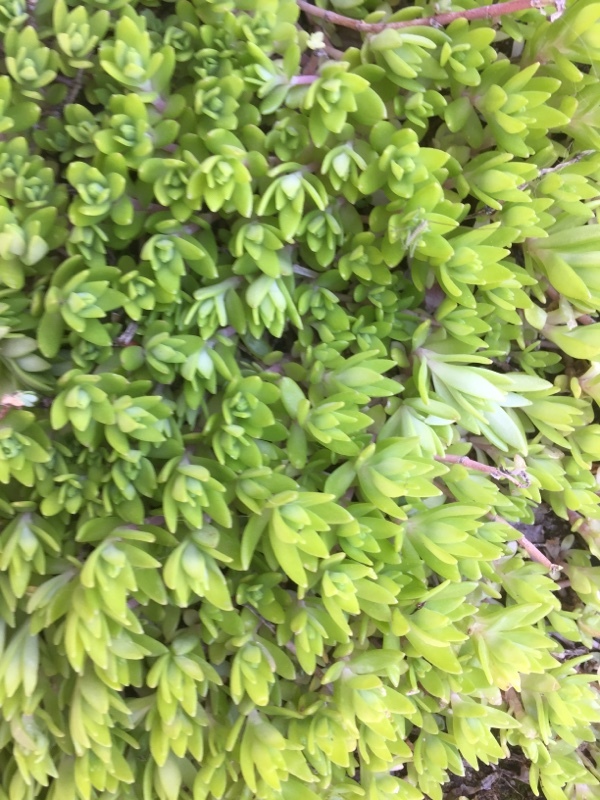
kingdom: Plantae
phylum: Tracheophyta
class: Magnoliopsida
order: Saxifragales
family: Crassulaceae
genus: Sedum
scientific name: Sedum sarmentosum
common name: Stringy stonecrop
